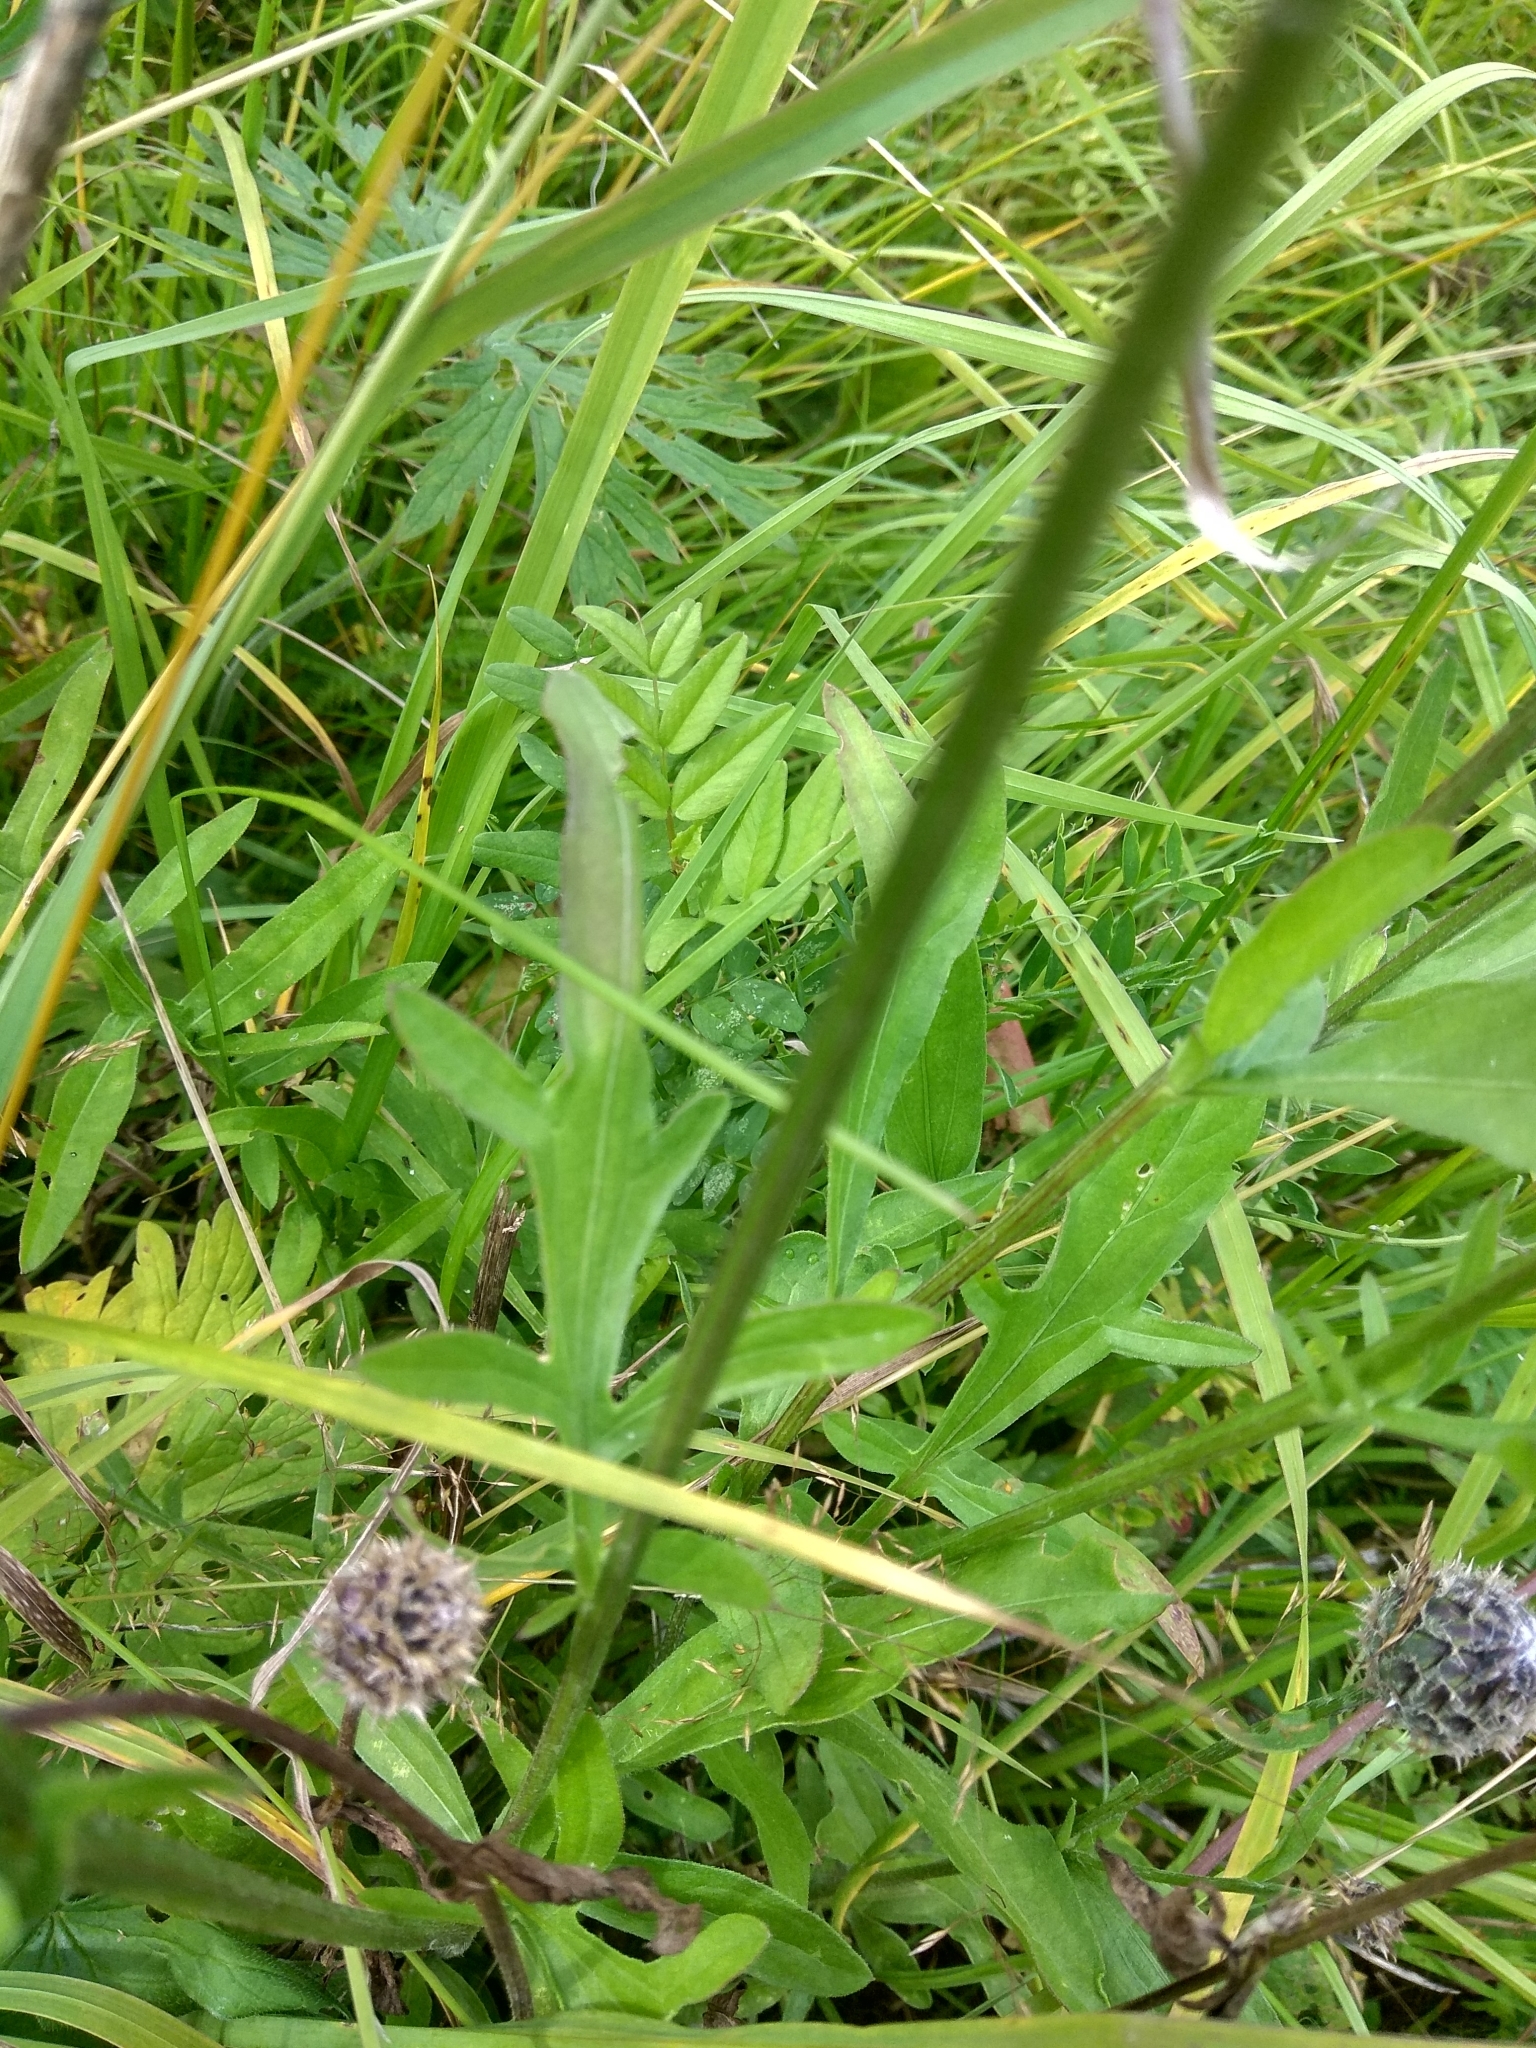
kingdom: Plantae
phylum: Tracheophyta
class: Magnoliopsida
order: Asterales
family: Asteraceae
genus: Centaurea
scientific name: Centaurea scabiosa
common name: Greater knapweed
